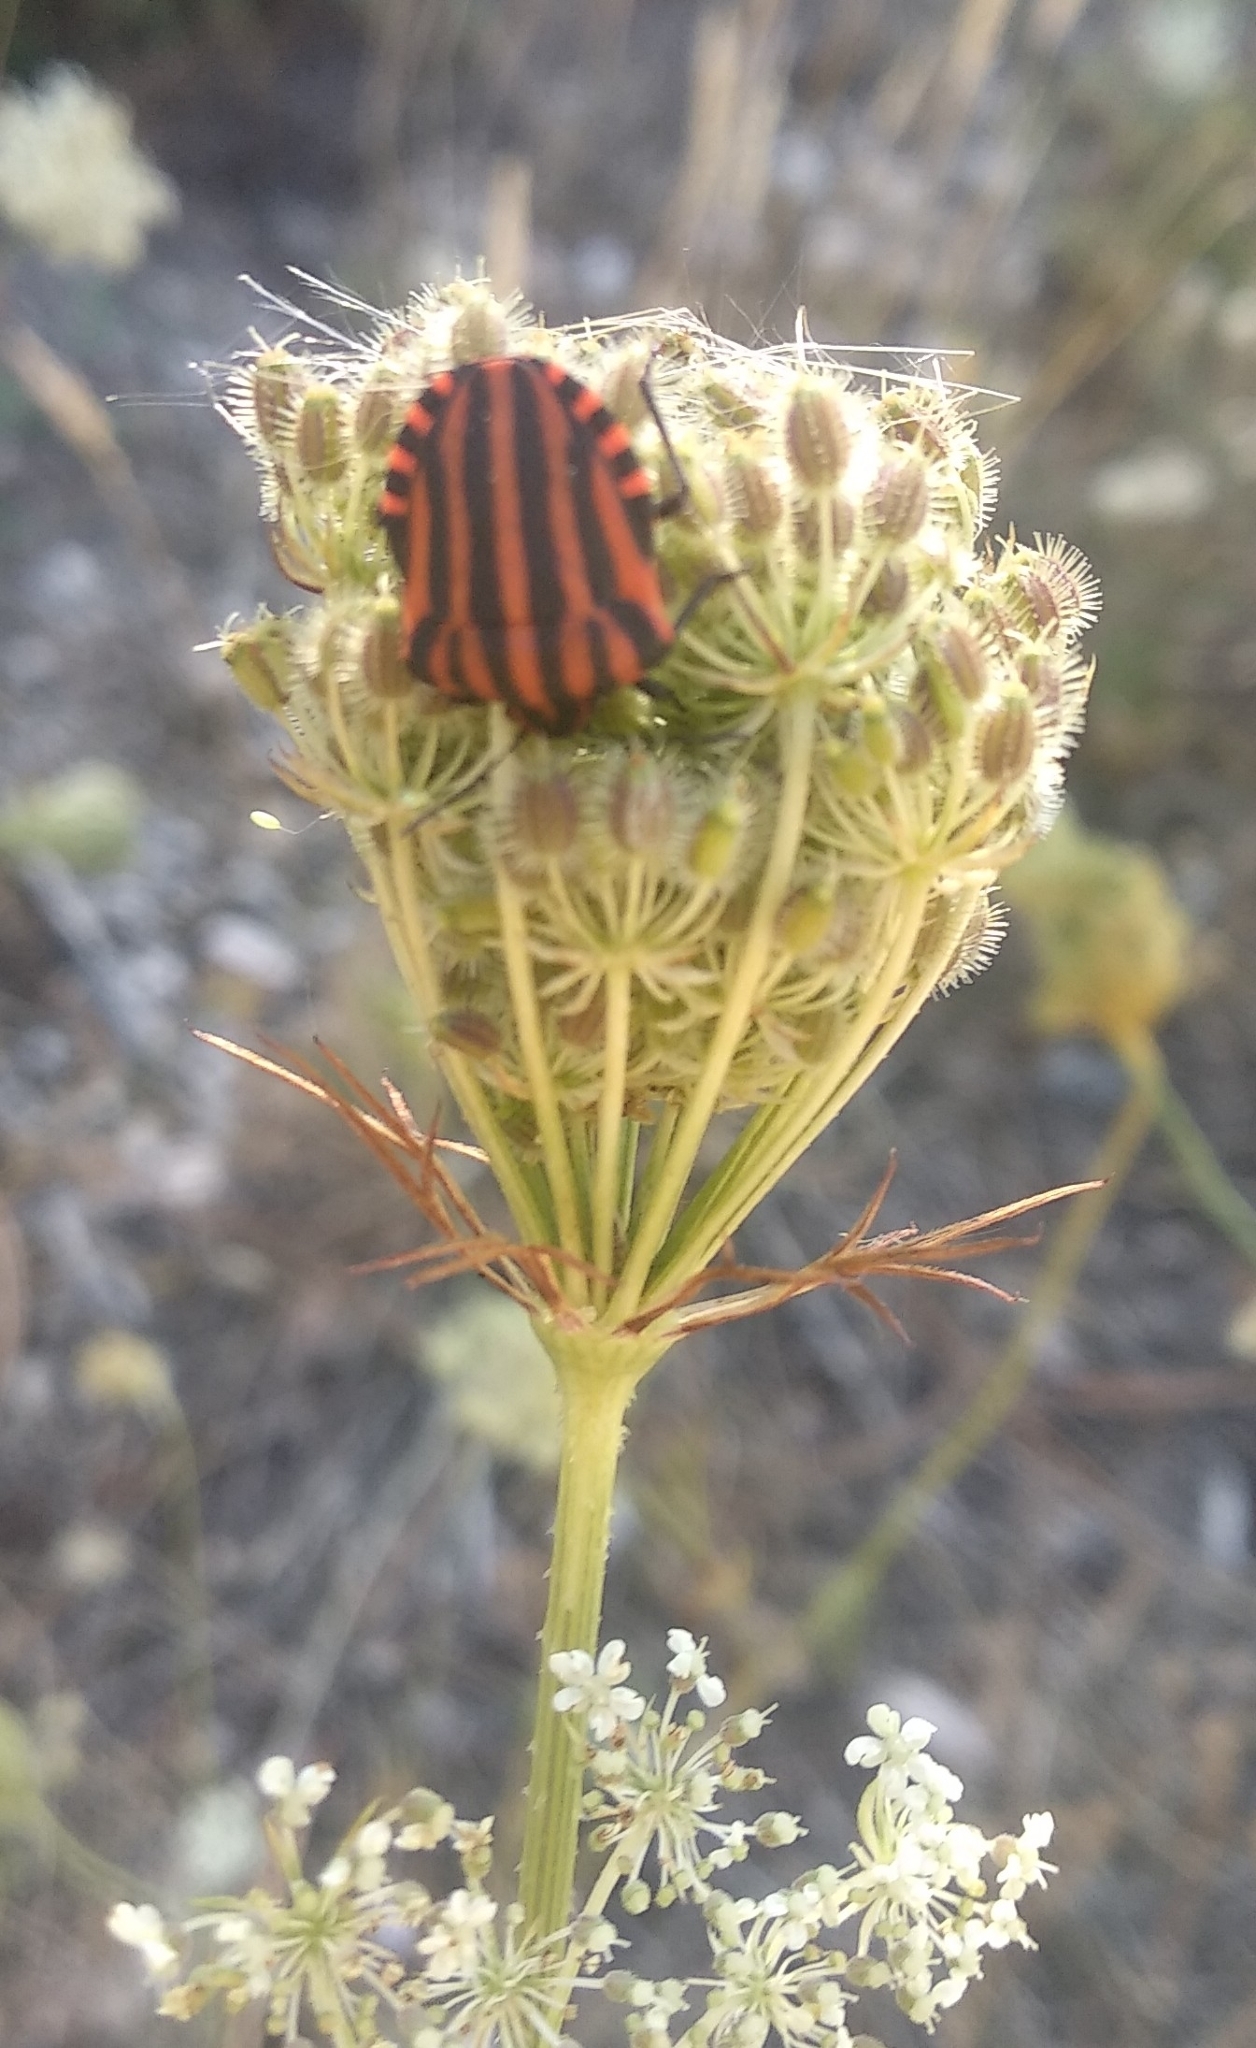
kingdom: Animalia
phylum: Arthropoda
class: Insecta
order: Hemiptera
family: Pentatomidae
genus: Graphosoma
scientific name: Graphosoma italicum
